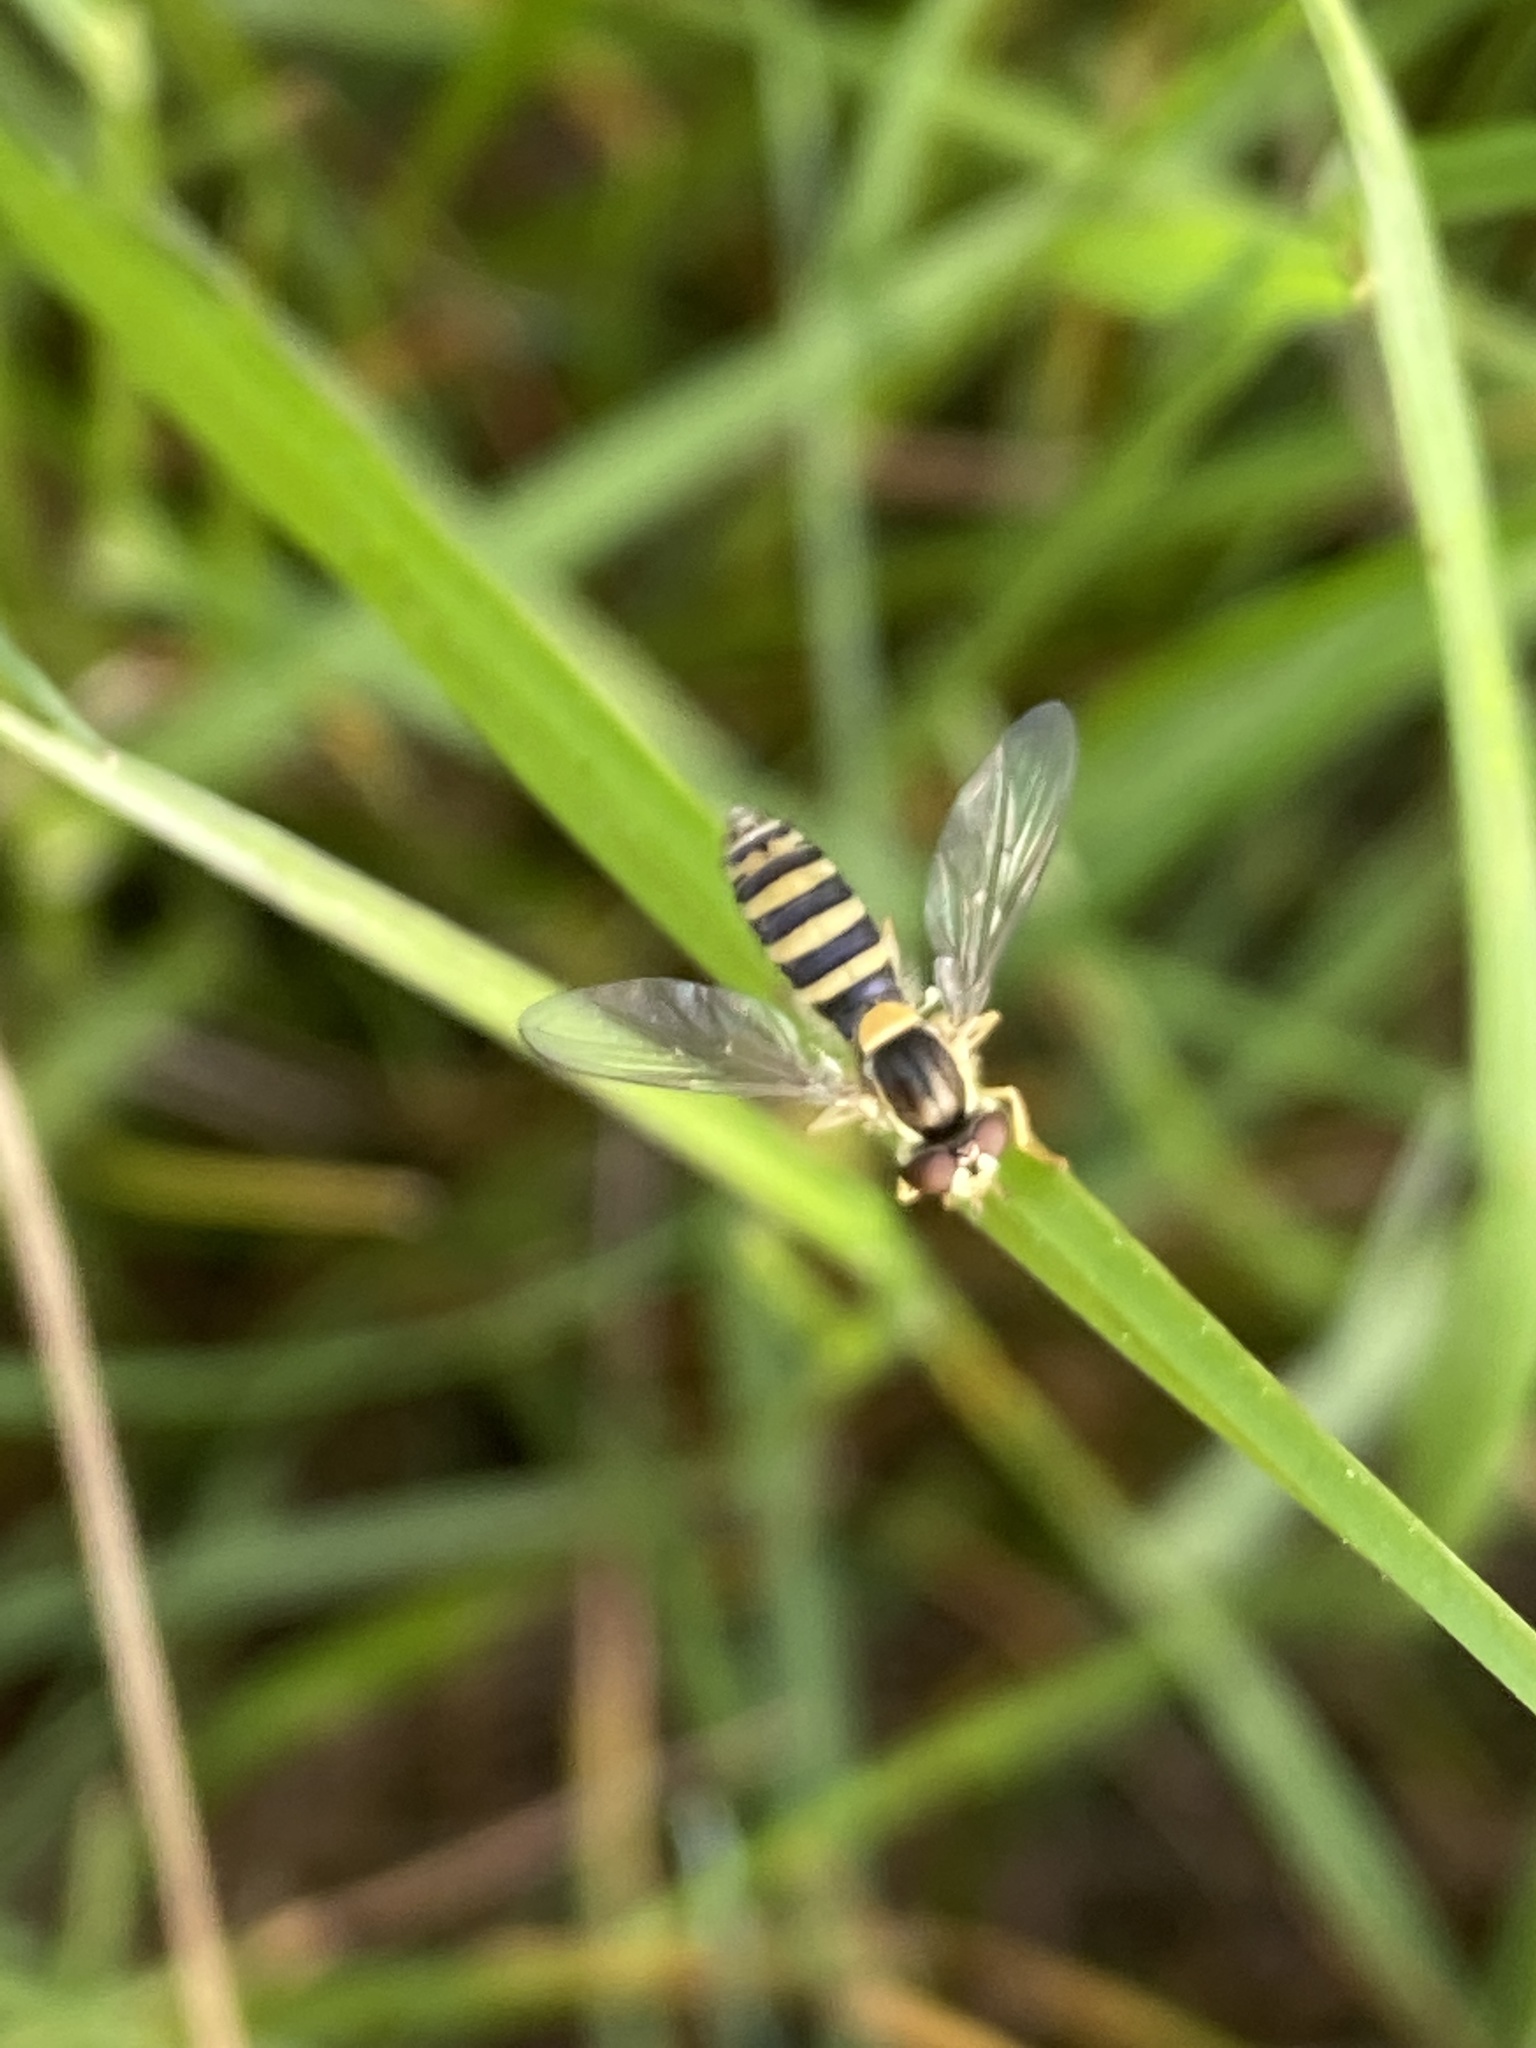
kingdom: Animalia
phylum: Arthropoda
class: Insecta
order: Diptera
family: Syrphidae
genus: Sphaerophoria
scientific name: Sphaerophoria
